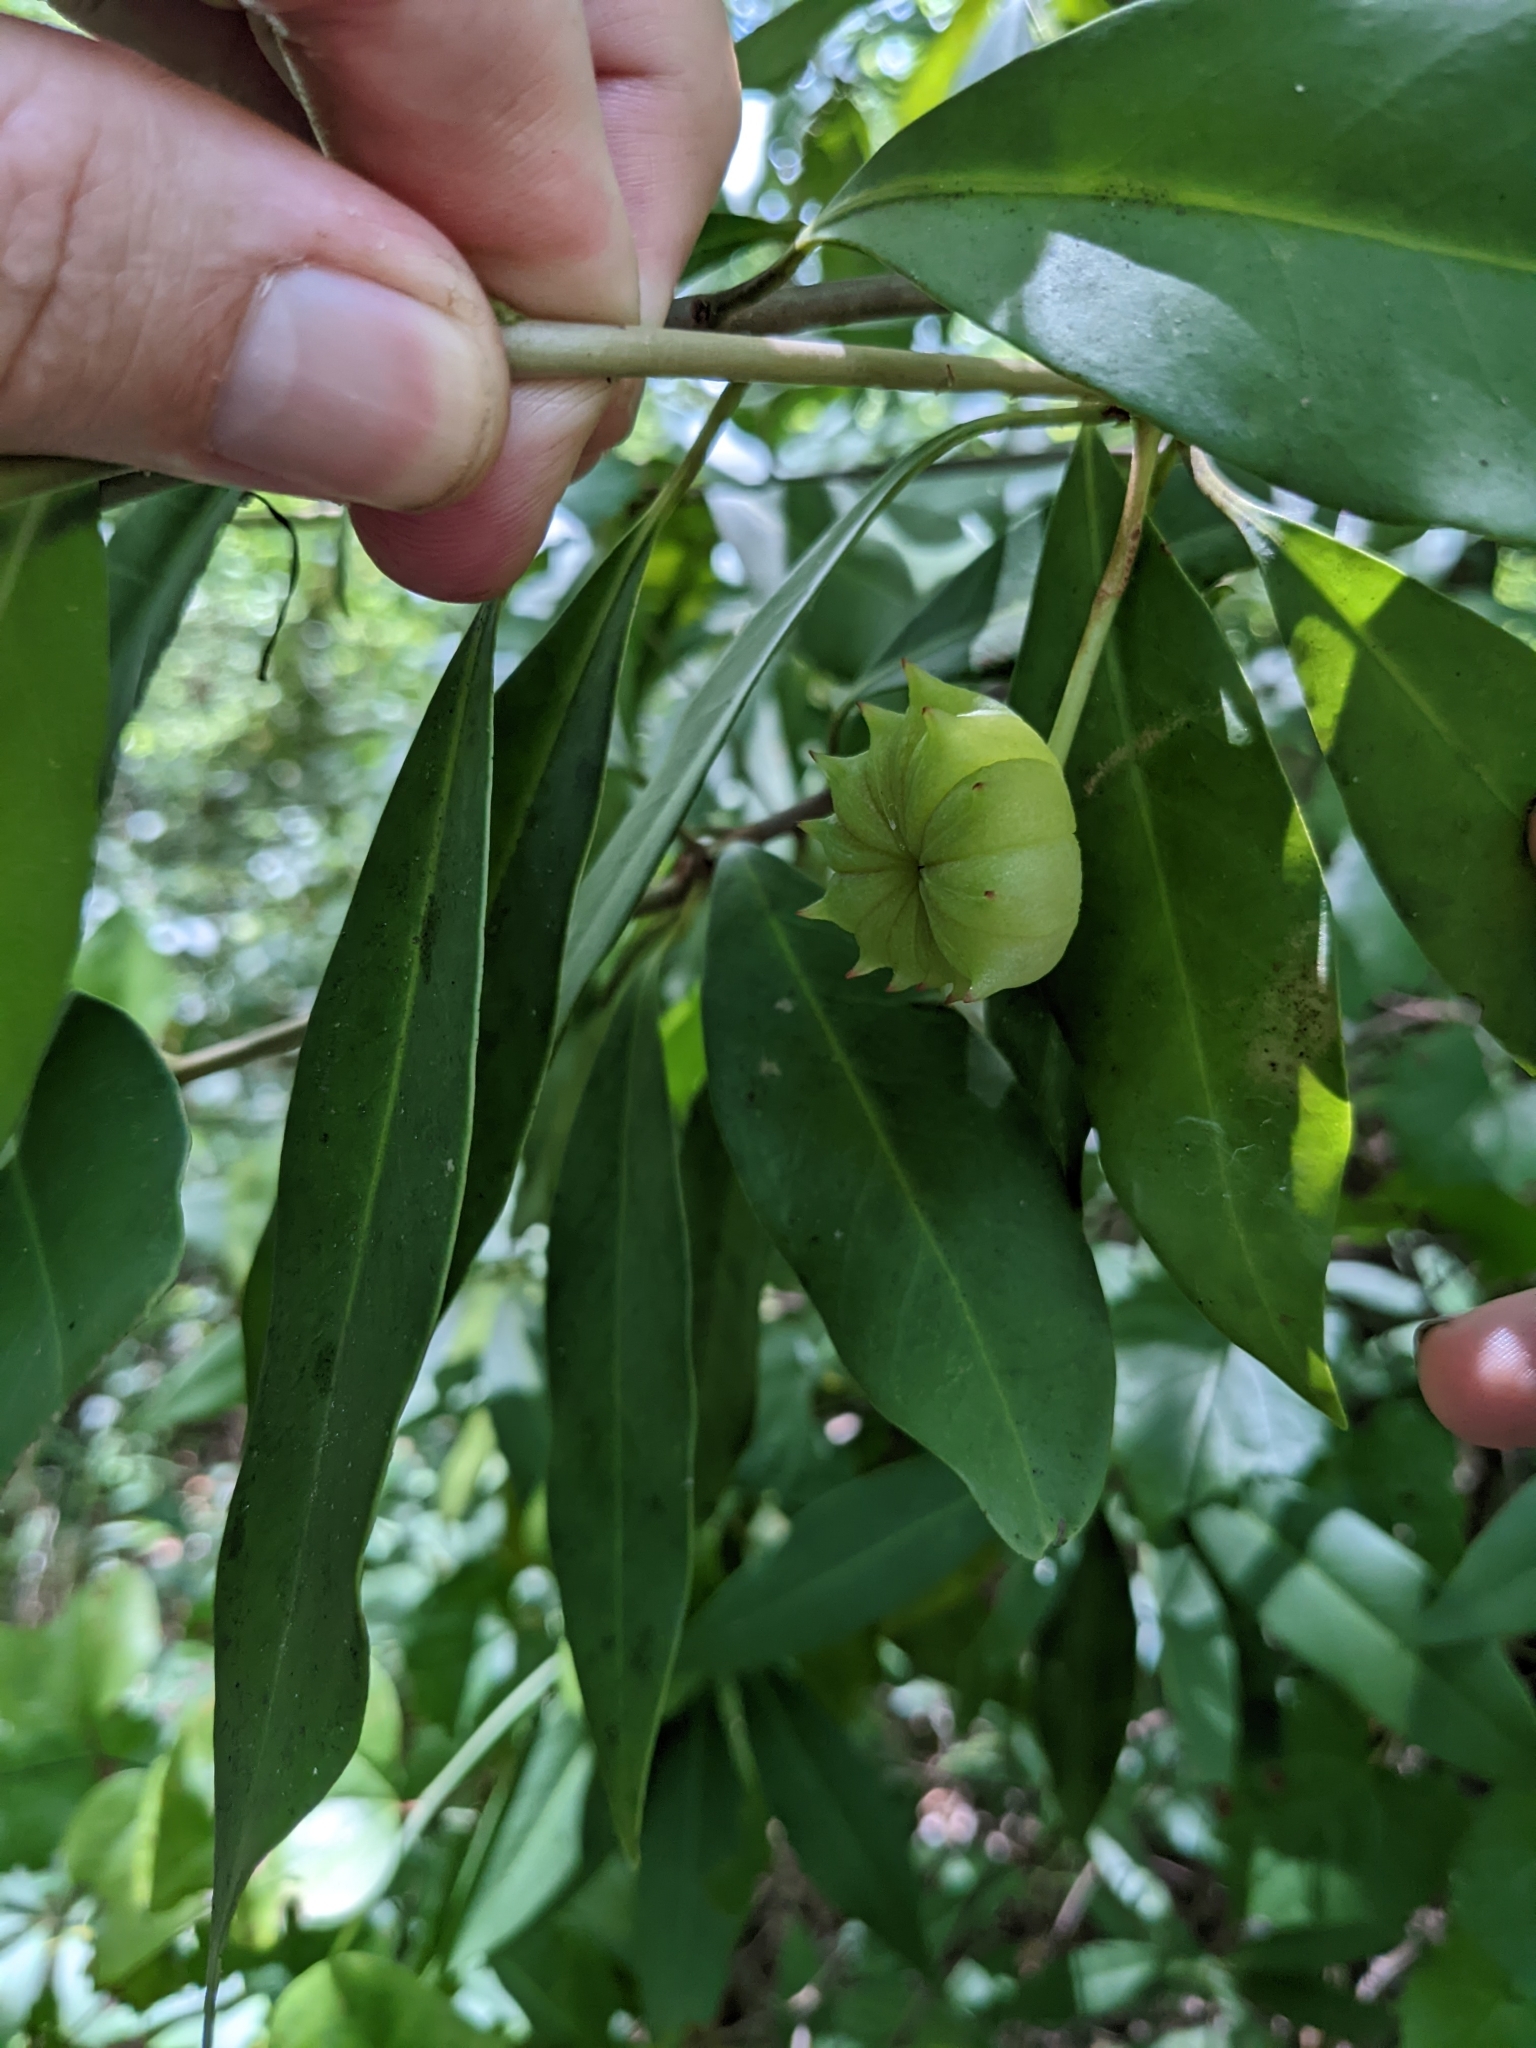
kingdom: Plantae
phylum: Tracheophyta
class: Magnoliopsida
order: Austrobaileyales
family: Schisandraceae
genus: Illicium
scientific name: Illicium floridanum
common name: Florida anisetree
